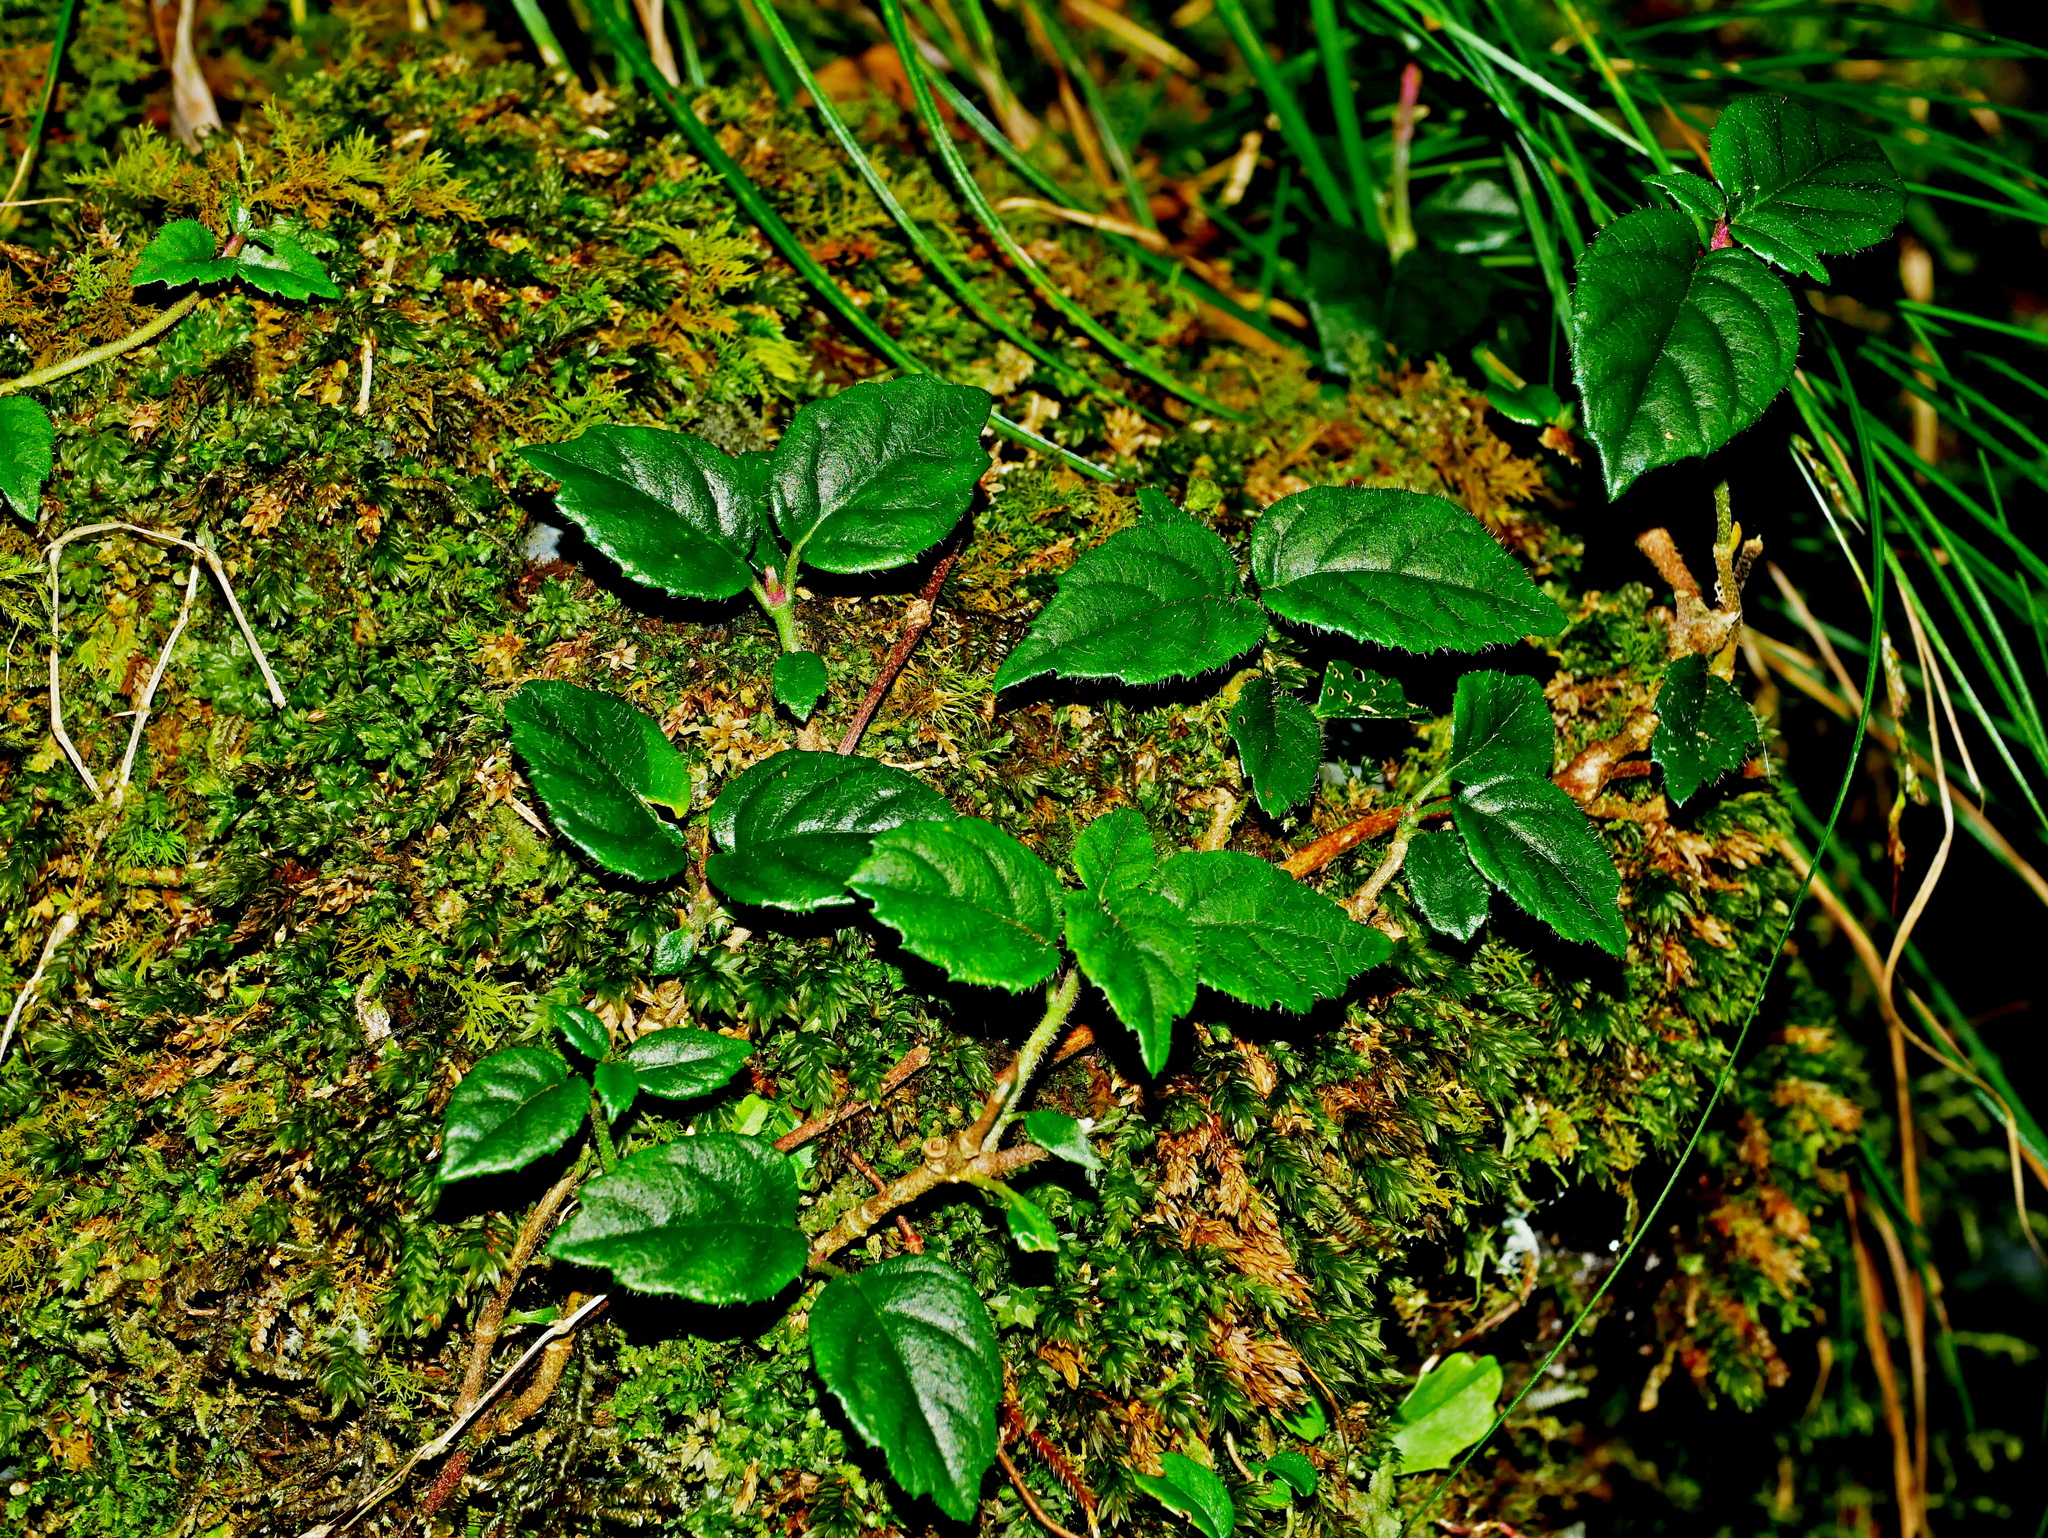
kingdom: Plantae
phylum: Tracheophyta
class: Magnoliopsida
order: Cornales
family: Hydrangeaceae
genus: Hydrangea
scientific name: Hydrangea fauriei
